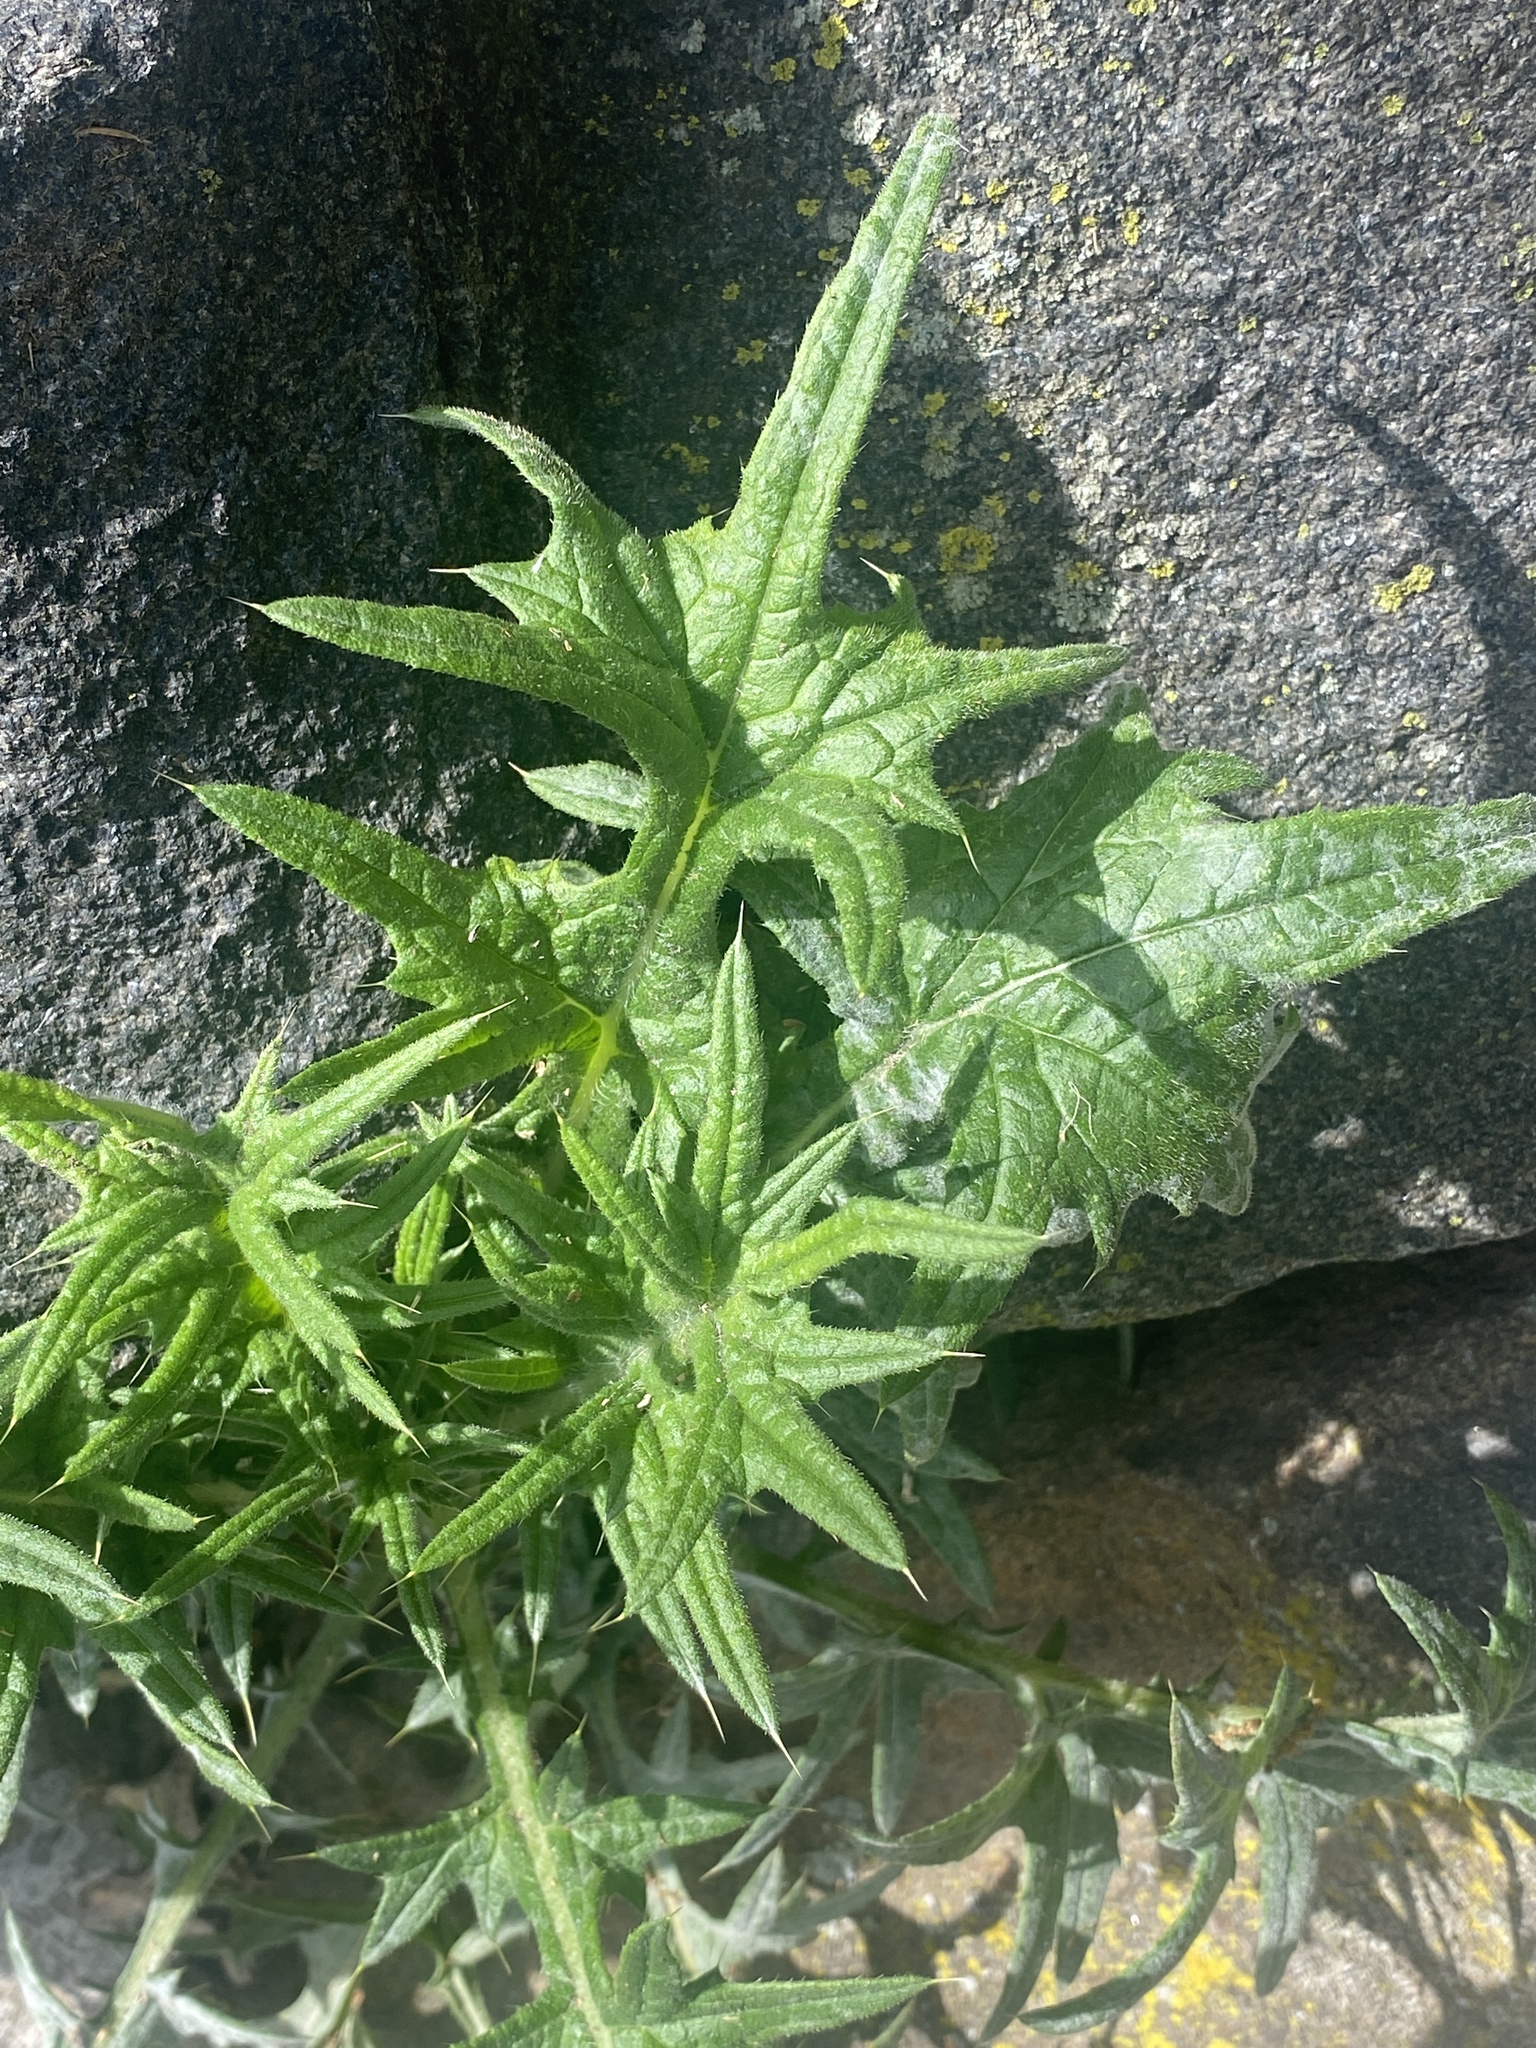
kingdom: Plantae
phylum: Tracheophyta
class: Magnoliopsida
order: Asterales
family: Asteraceae
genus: Cirsium
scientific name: Cirsium vulgare
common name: Bull thistle
